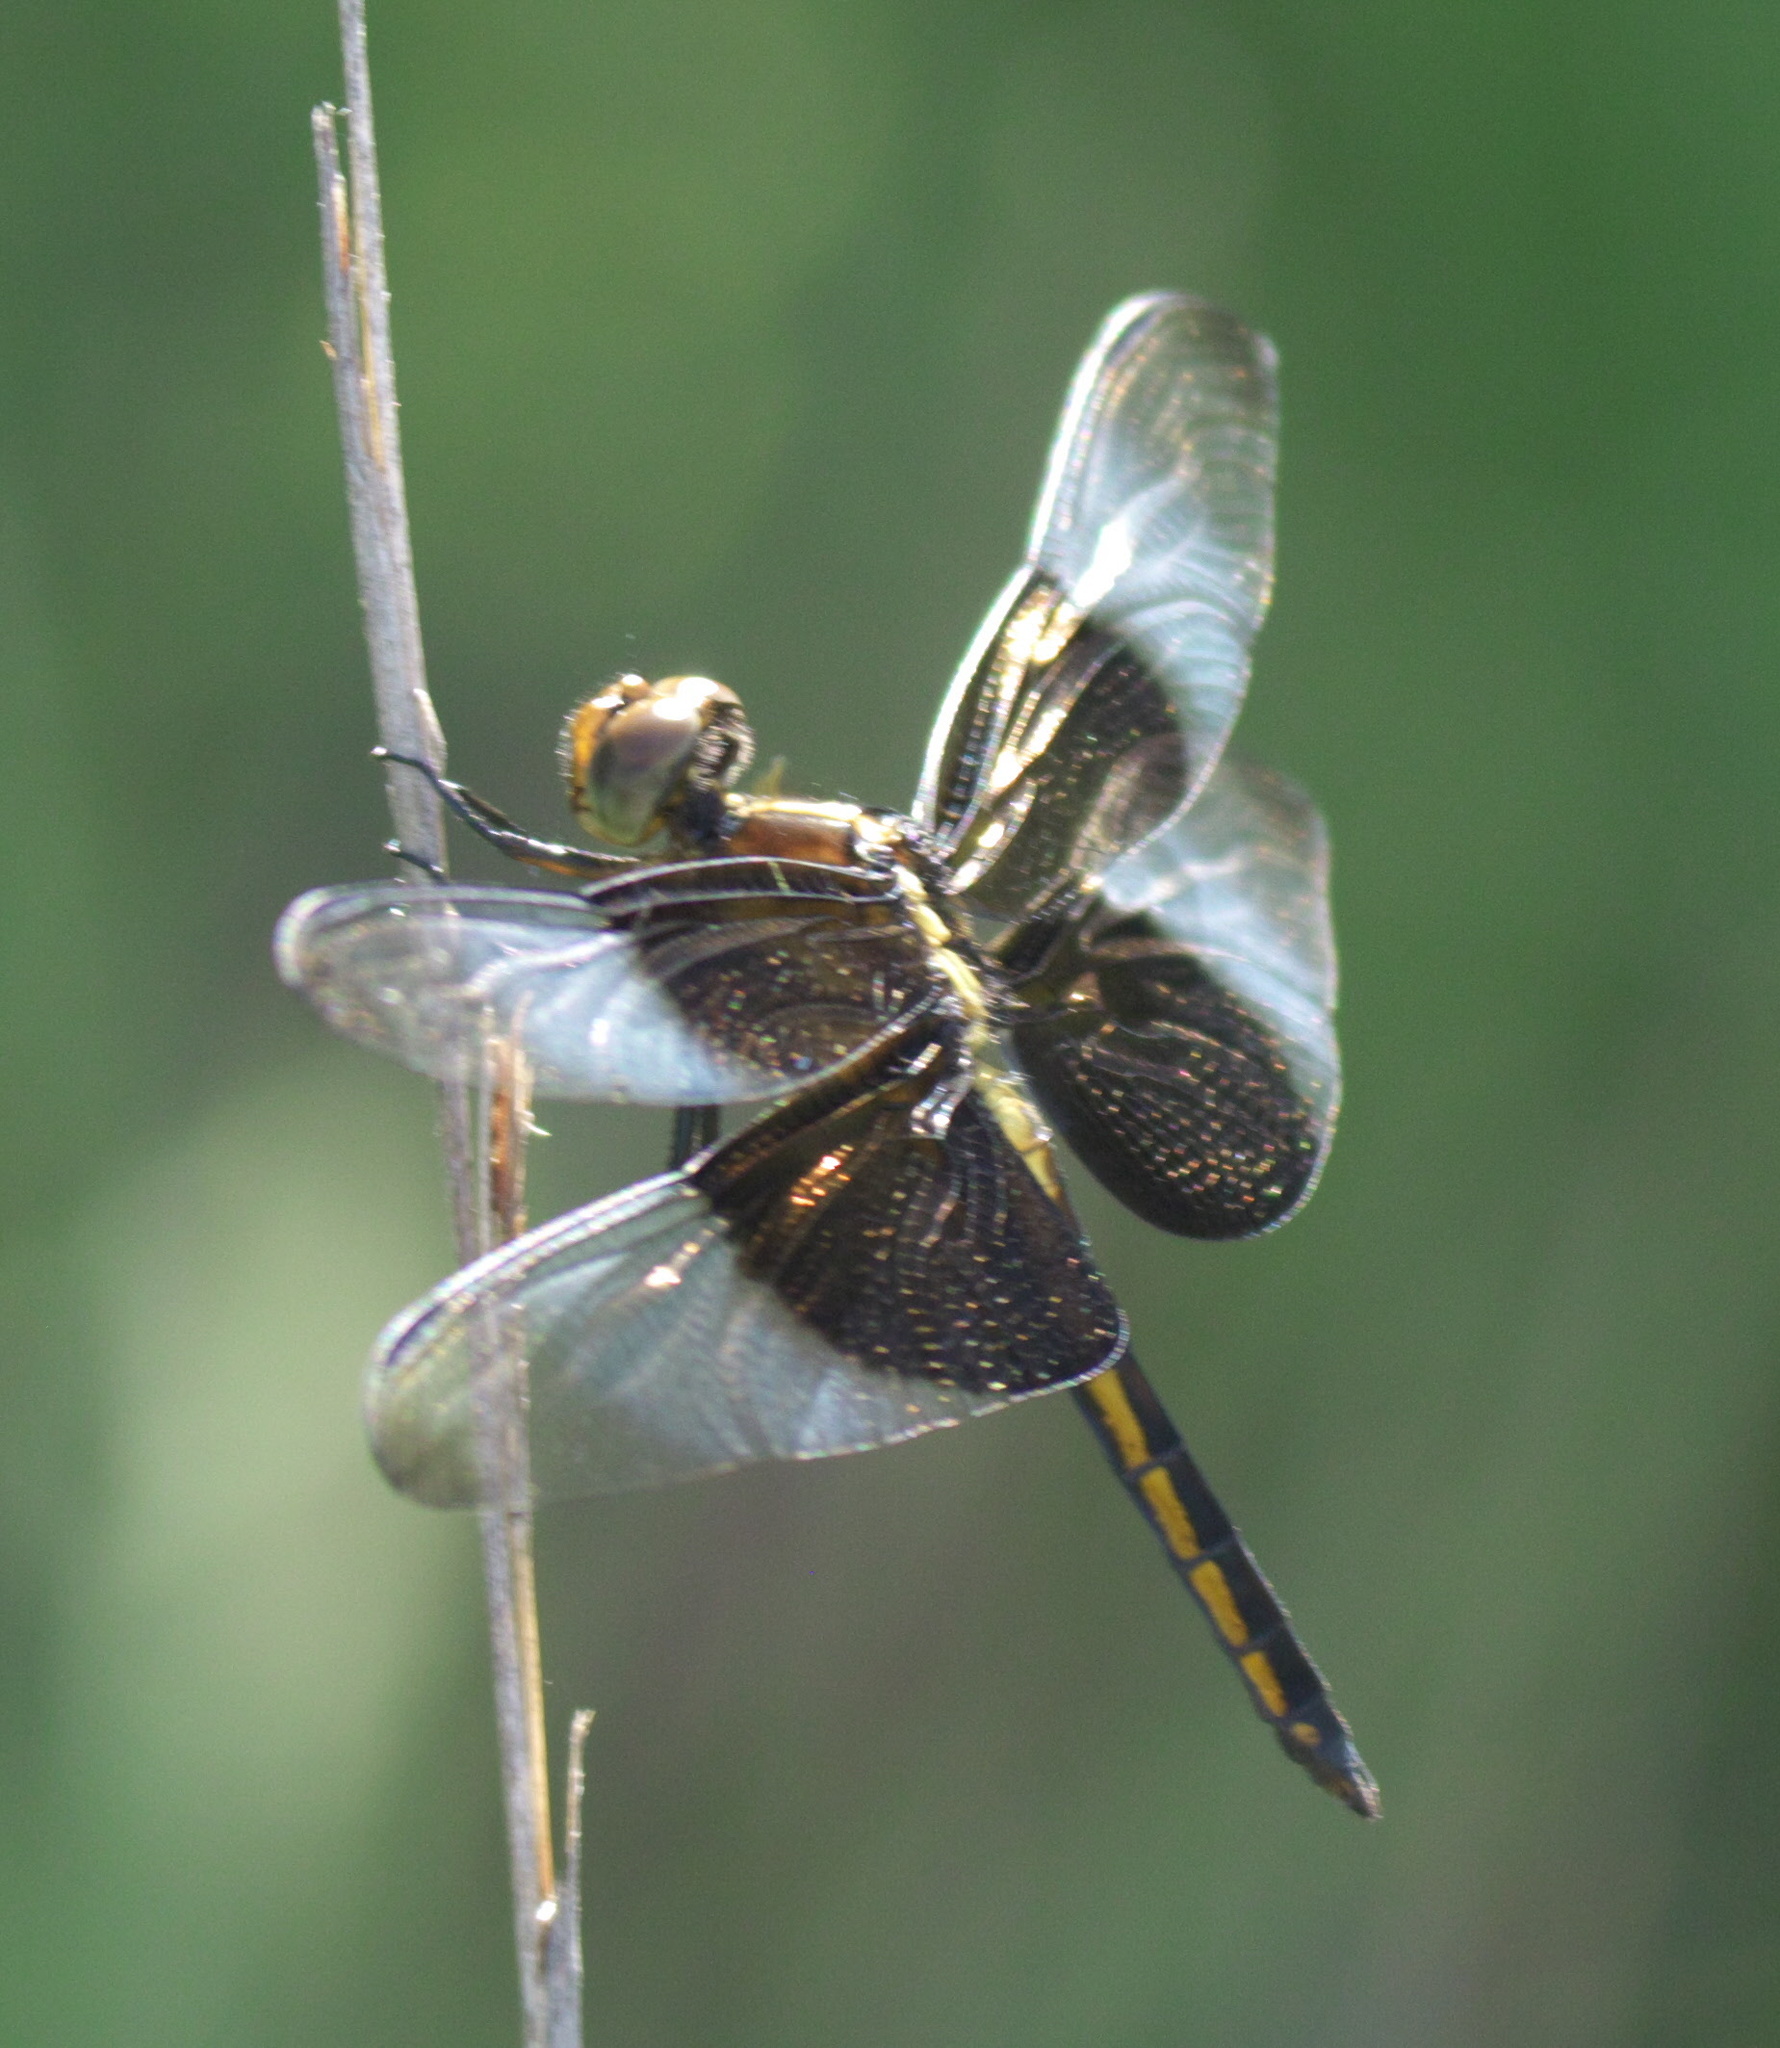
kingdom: Animalia
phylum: Arthropoda
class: Insecta
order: Odonata
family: Libellulidae
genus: Libellula
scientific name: Libellula luctuosa
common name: Widow skimmer
